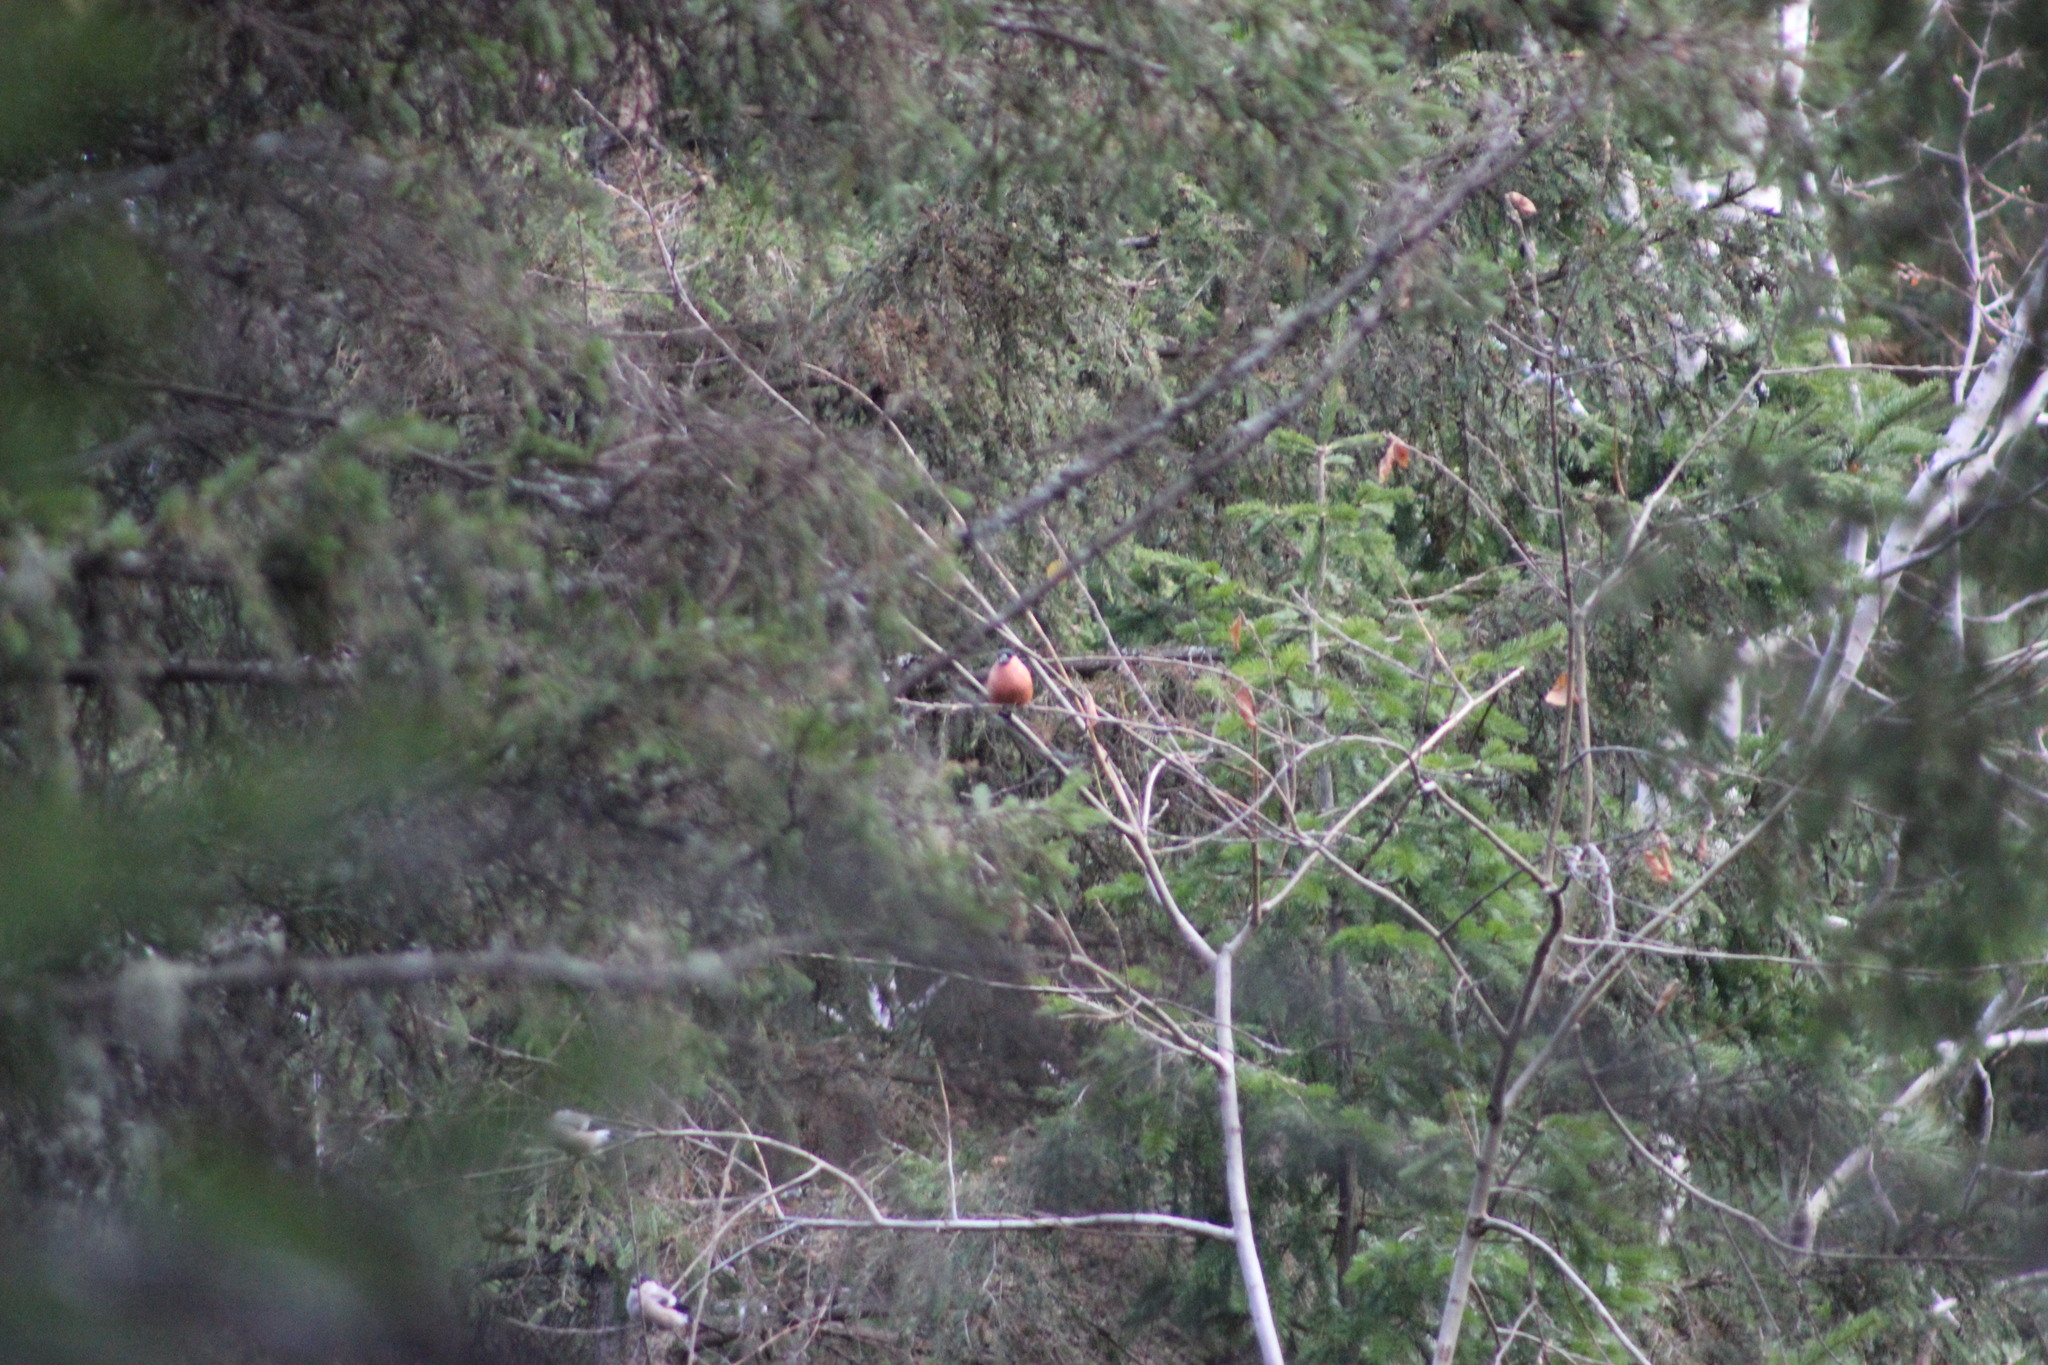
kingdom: Animalia
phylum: Chordata
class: Aves
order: Passeriformes
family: Fringillidae
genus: Pyrrhula
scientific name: Pyrrhula pyrrhula
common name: Eurasian bullfinch
